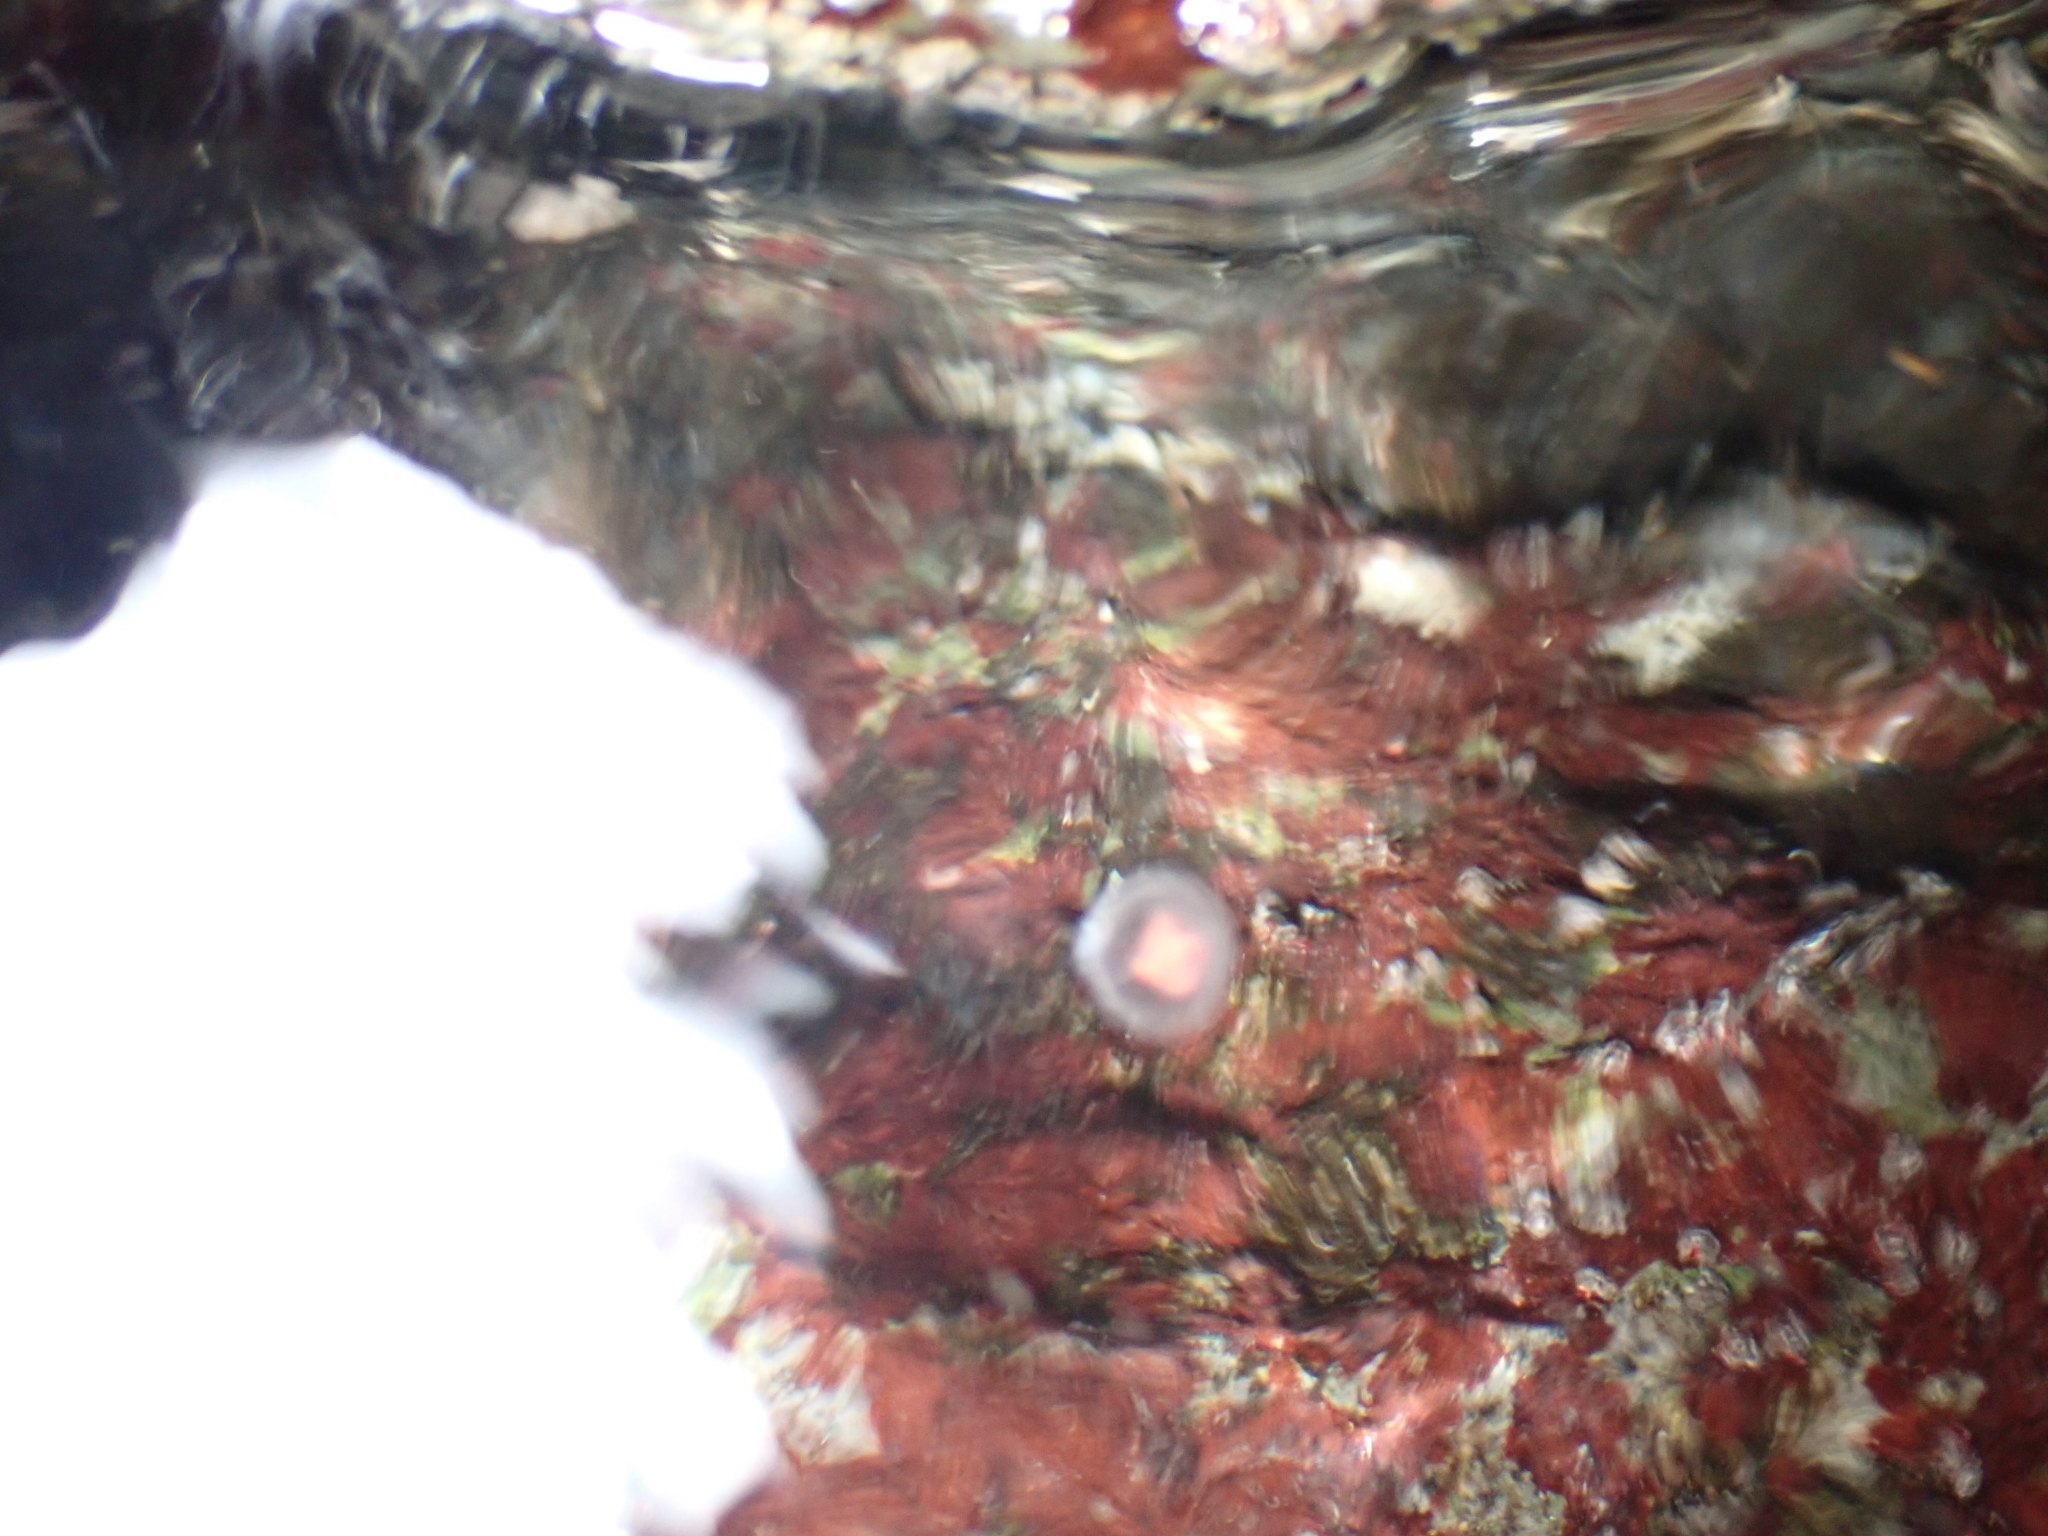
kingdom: Animalia
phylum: Cnidaria
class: Hydrozoa
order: Anthoathecata
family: Oceaniidae
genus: Turritopsis
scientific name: Turritopsis rubra
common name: Crimson jelly
